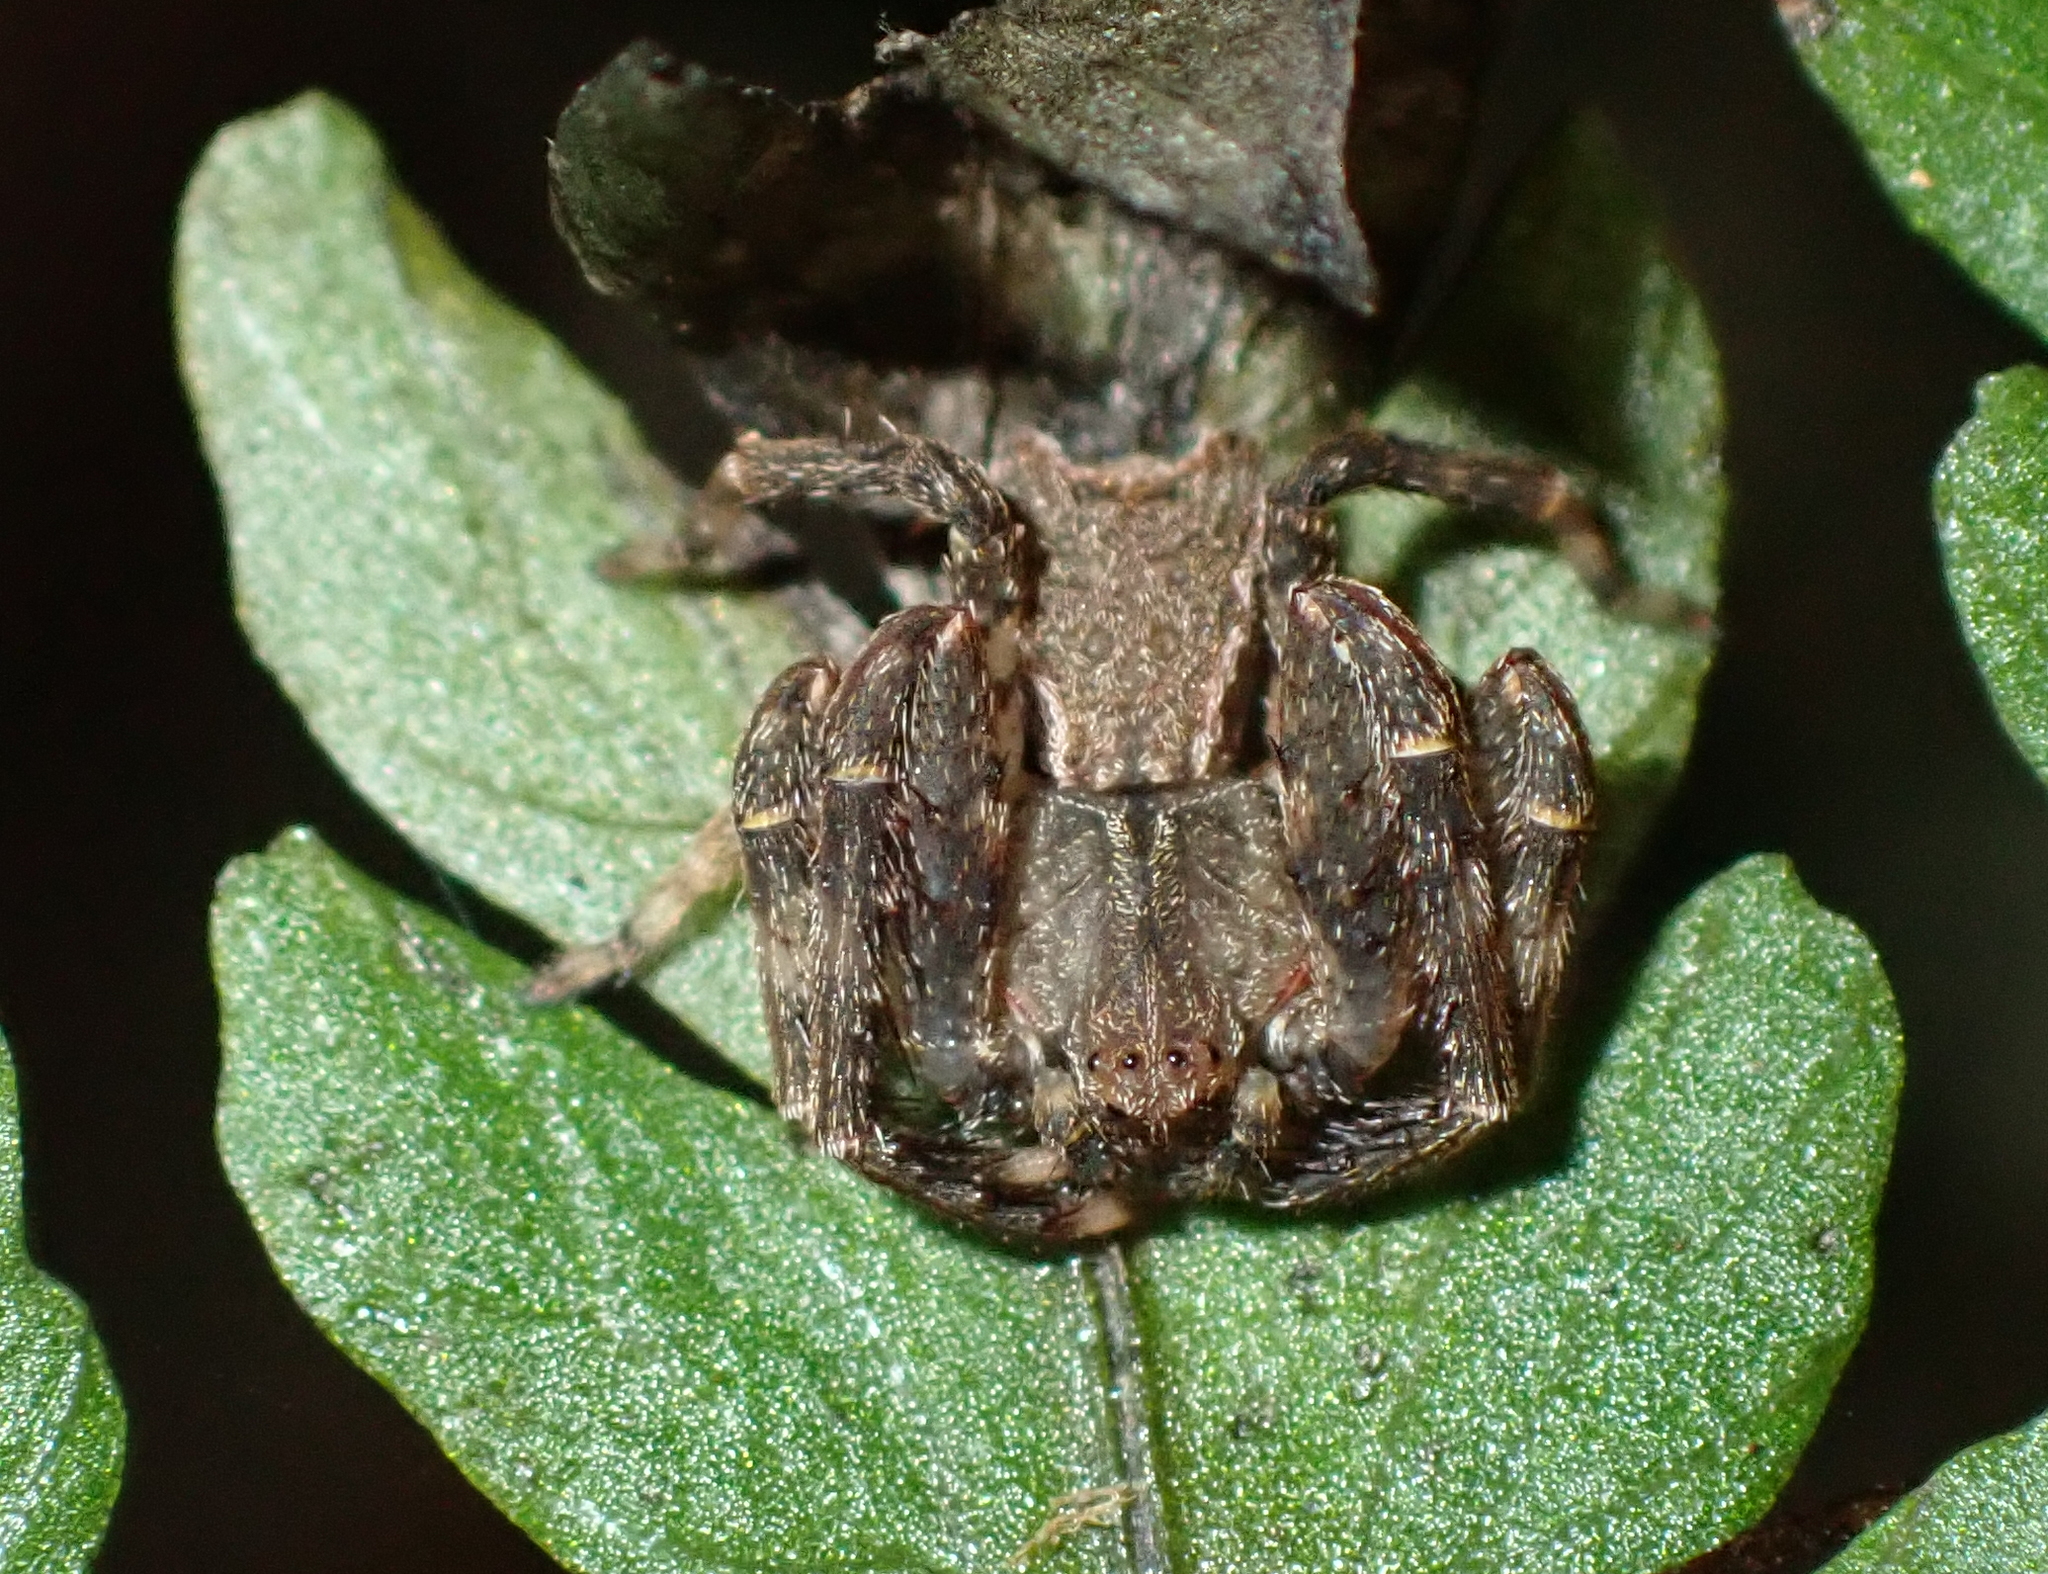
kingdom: Animalia
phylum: Arthropoda
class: Arachnida
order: Araneae
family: Thomisidae
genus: Sidymella
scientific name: Sidymella angularis
